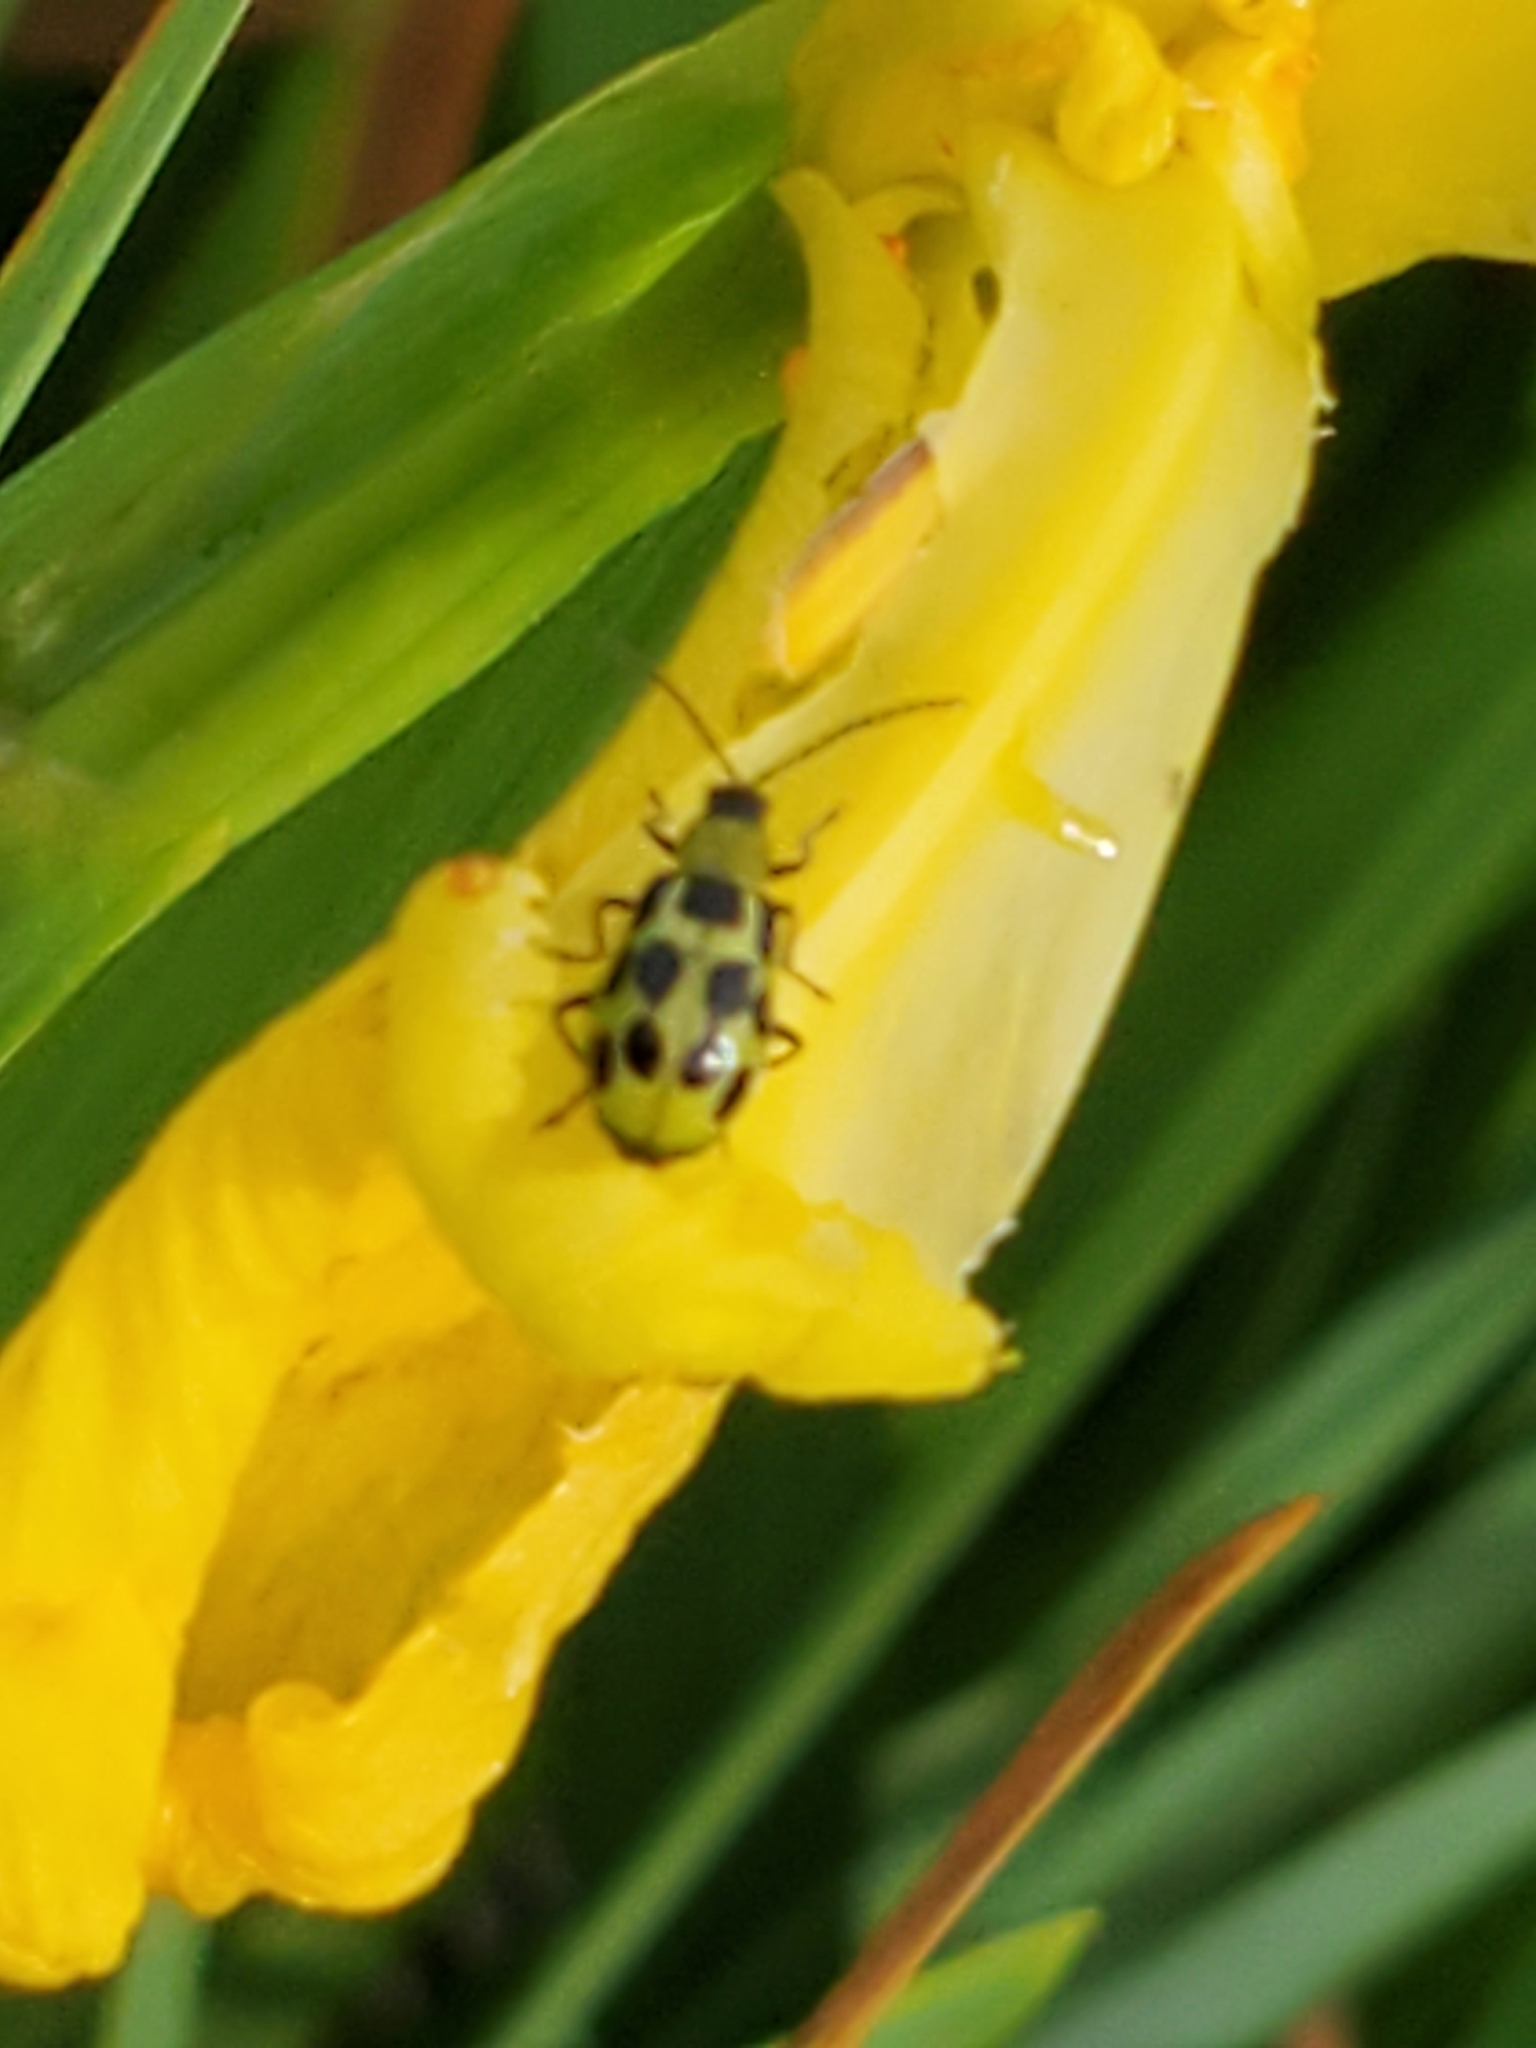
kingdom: Animalia
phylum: Arthropoda
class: Insecta
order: Coleoptera
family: Chrysomelidae
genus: Diabrotica
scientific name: Diabrotica undecimpunctata
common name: Spotted cucumber beetle
